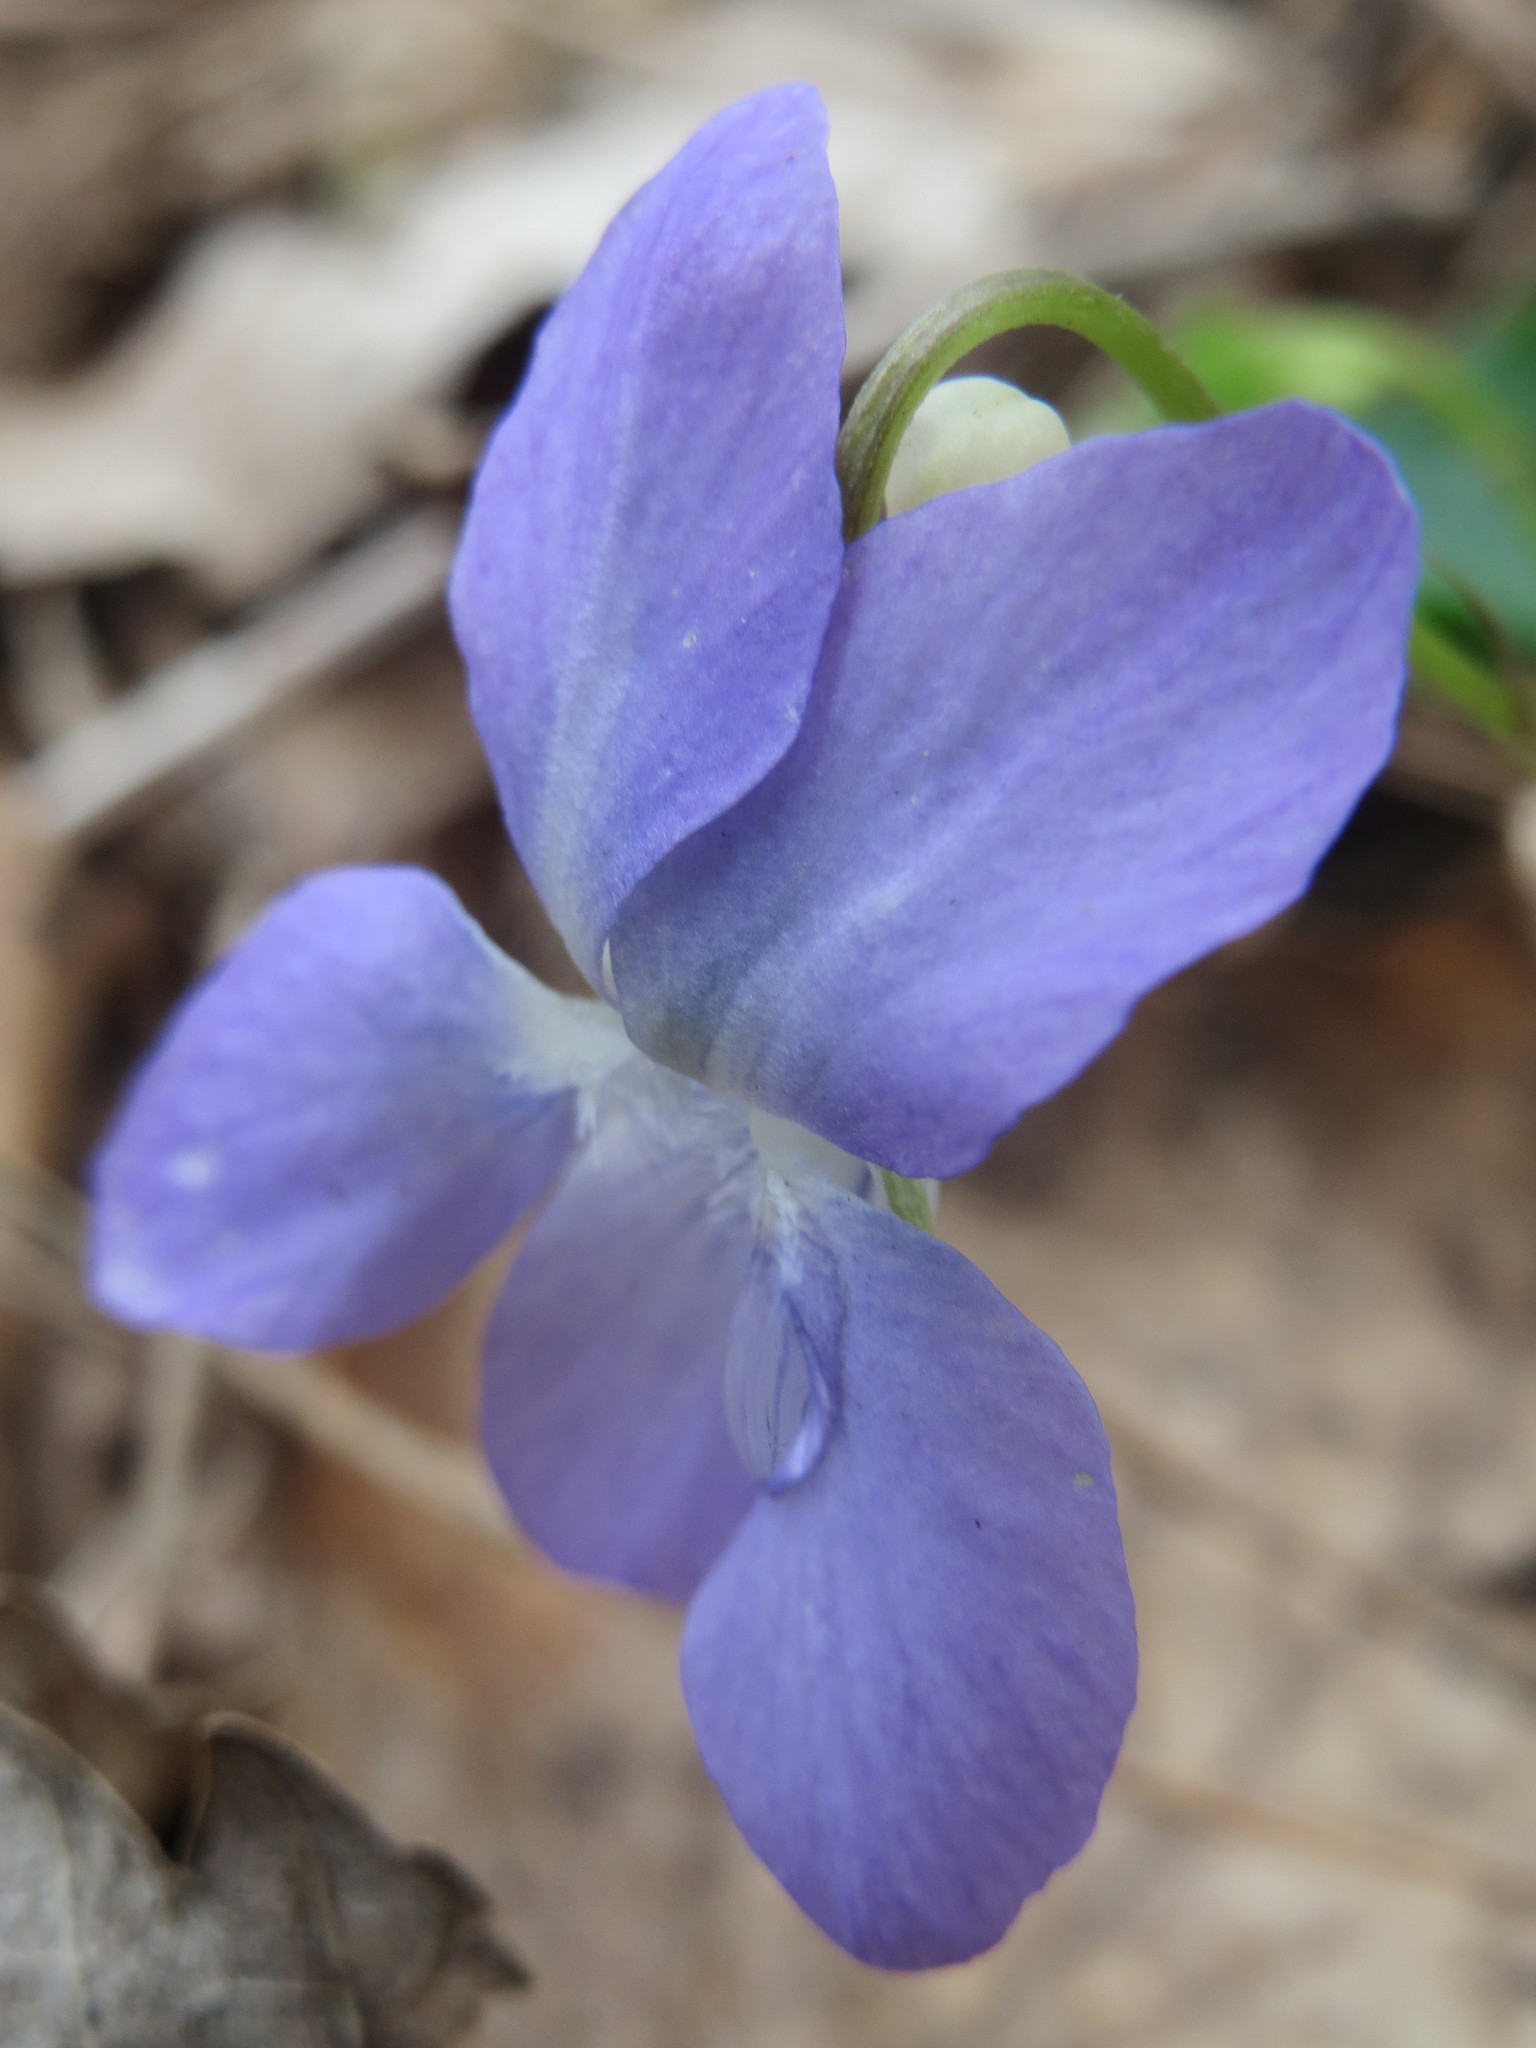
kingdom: Plantae
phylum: Tracheophyta
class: Magnoliopsida
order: Malpighiales
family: Violaceae
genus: Viola
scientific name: Viola riviniana
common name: Common dog-violet
